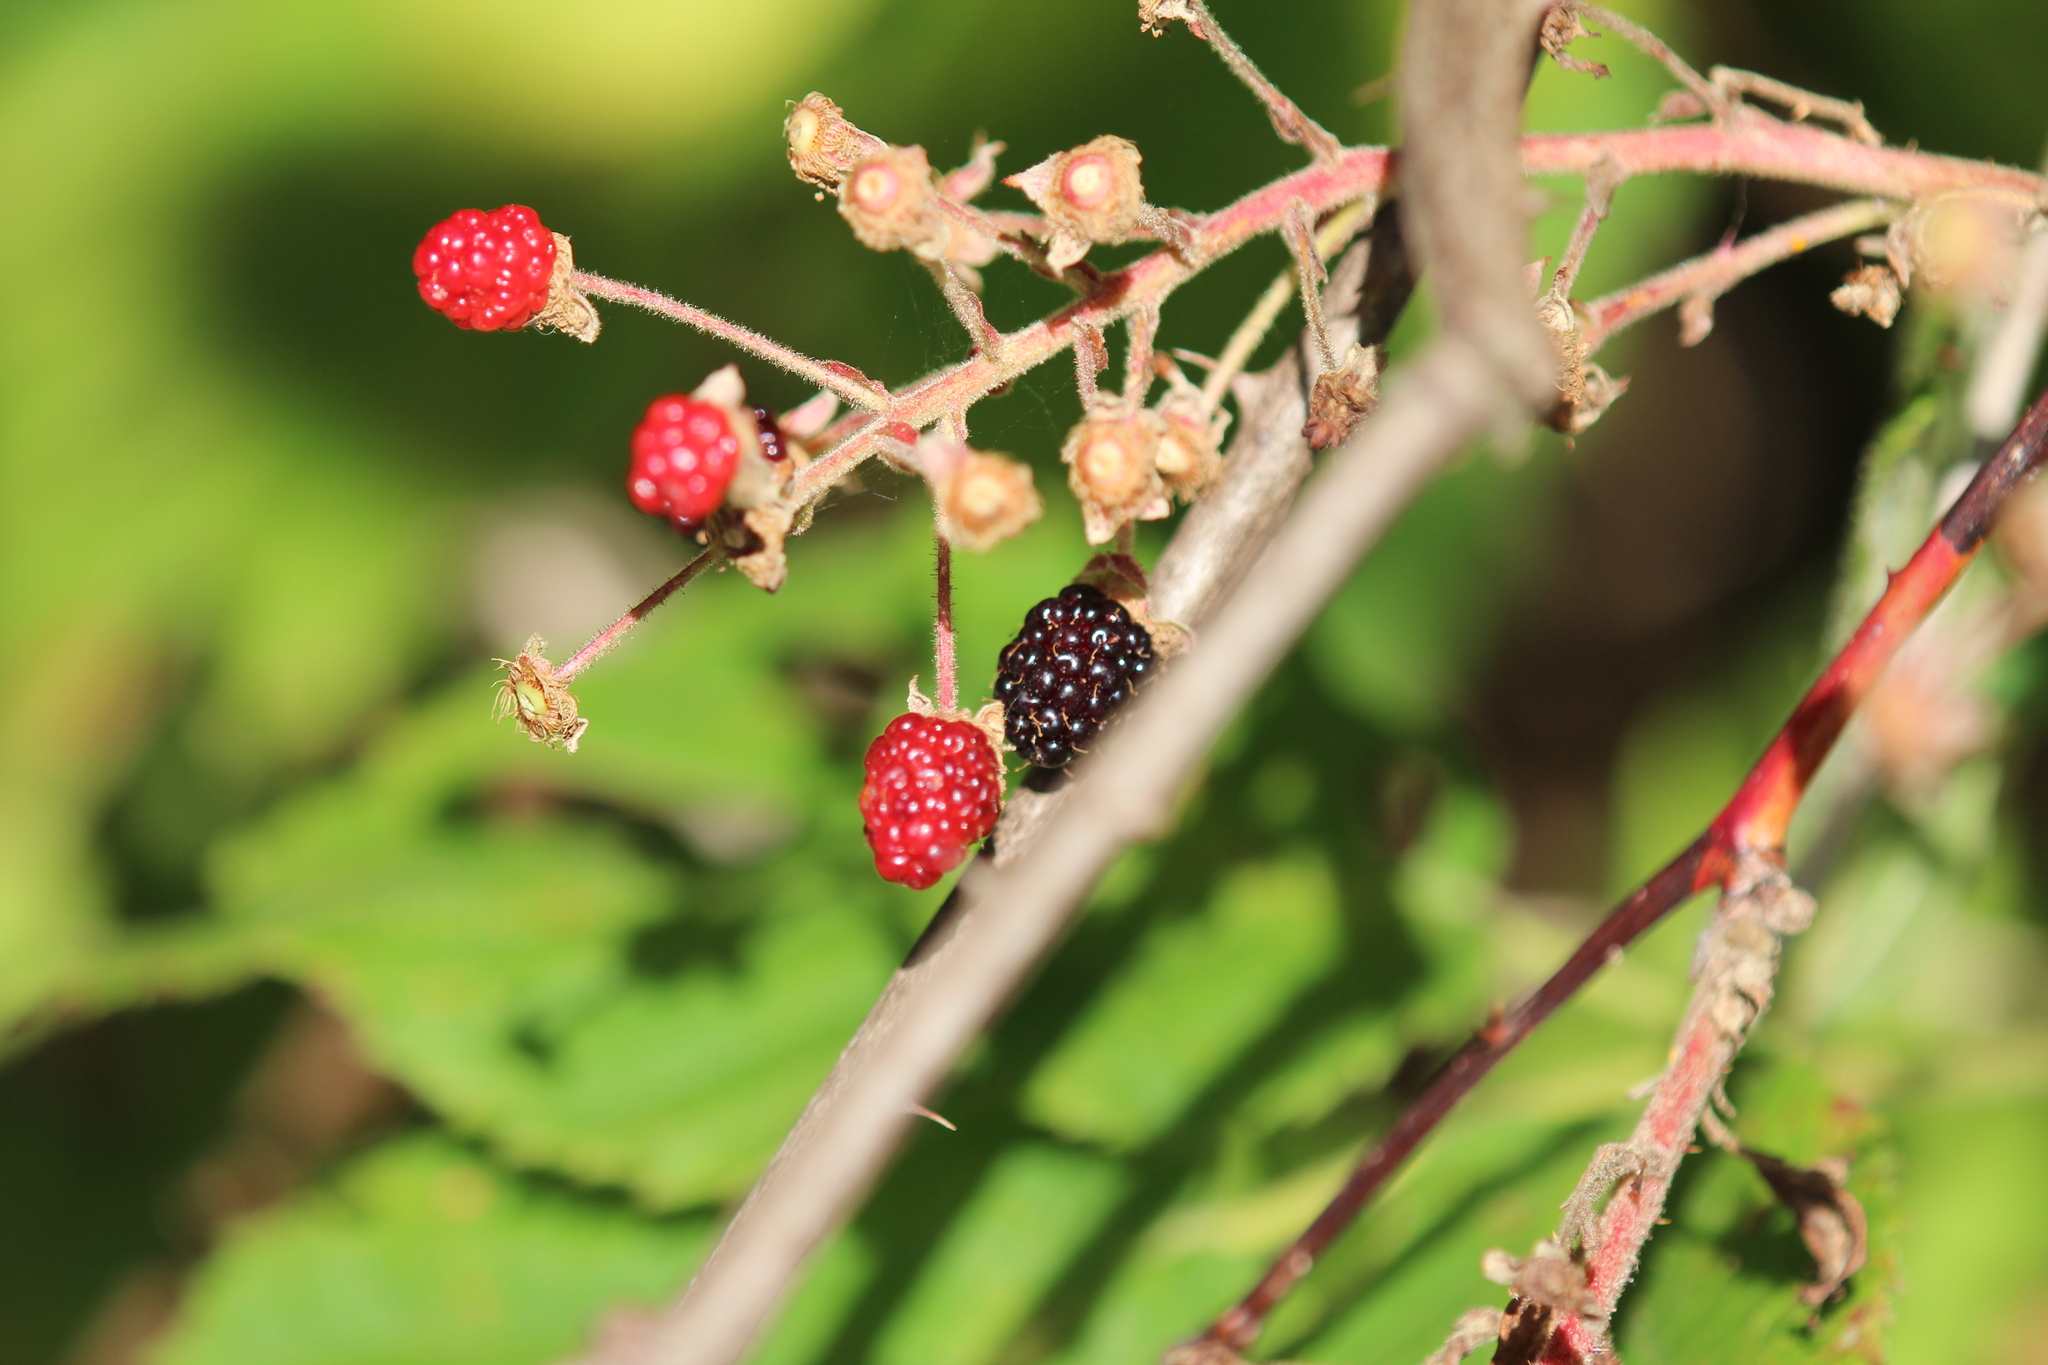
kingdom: Plantae
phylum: Tracheophyta
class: Magnoliopsida
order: Rosales
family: Rosaceae
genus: Rubus
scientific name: Rubus allegheniensis
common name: Allegheny blackberry
